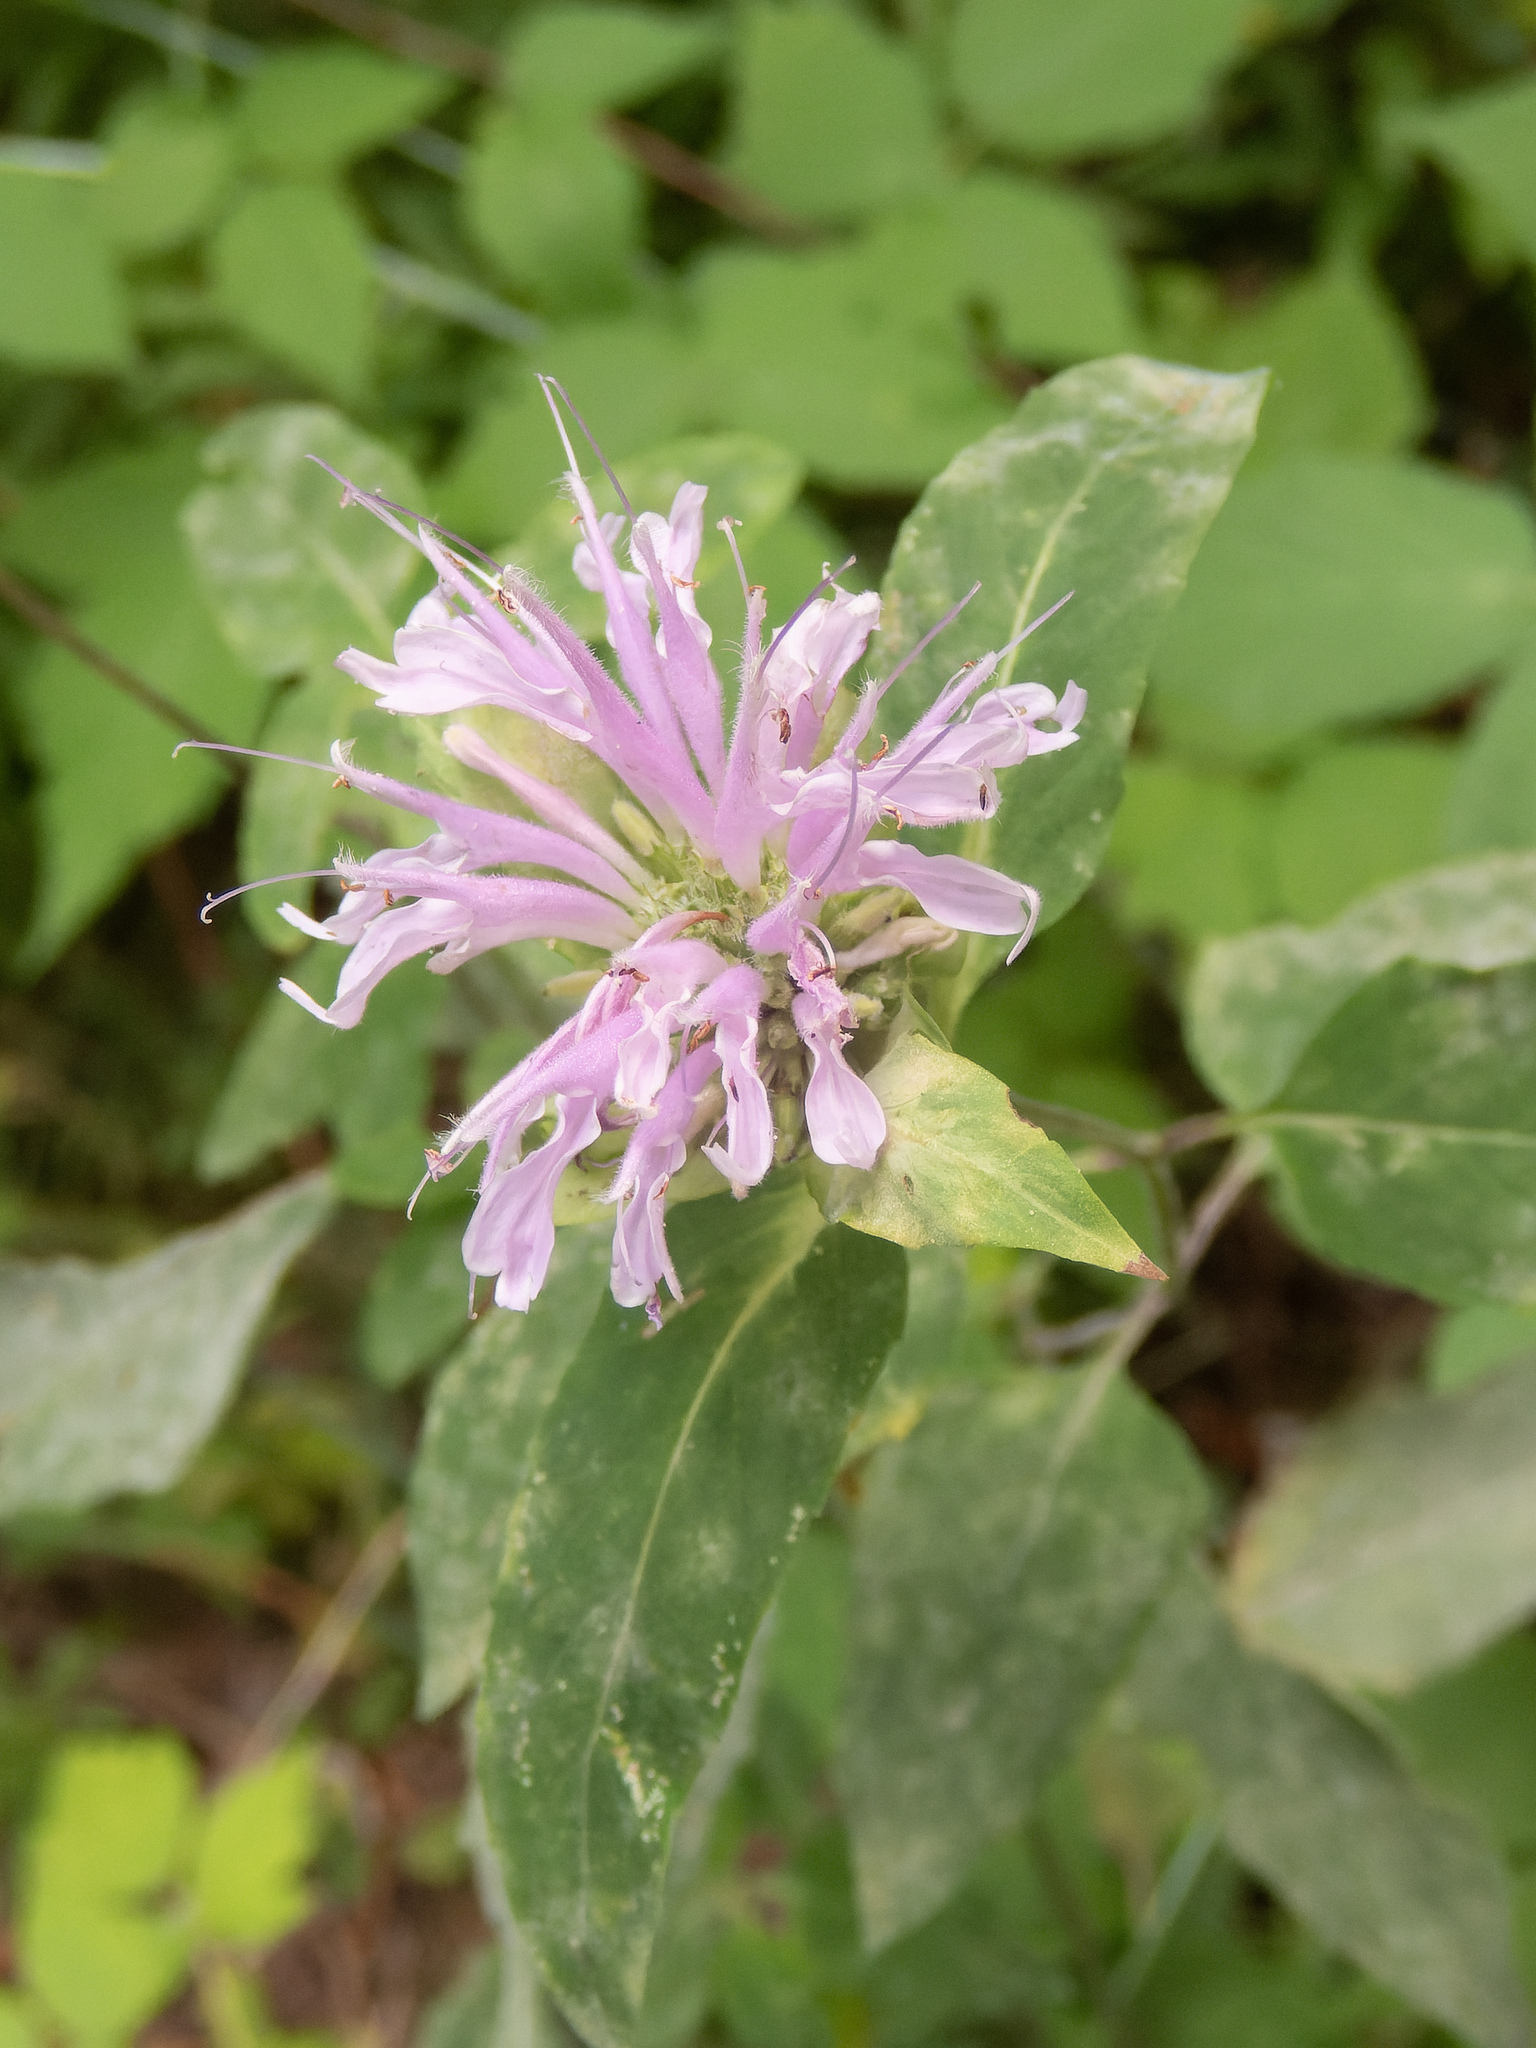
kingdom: Plantae
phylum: Tracheophyta
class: Magnoliopsida
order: Lamiales
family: Lamiaceae
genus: Monarda
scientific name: Monarda fistulosa
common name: Purple beebalm
